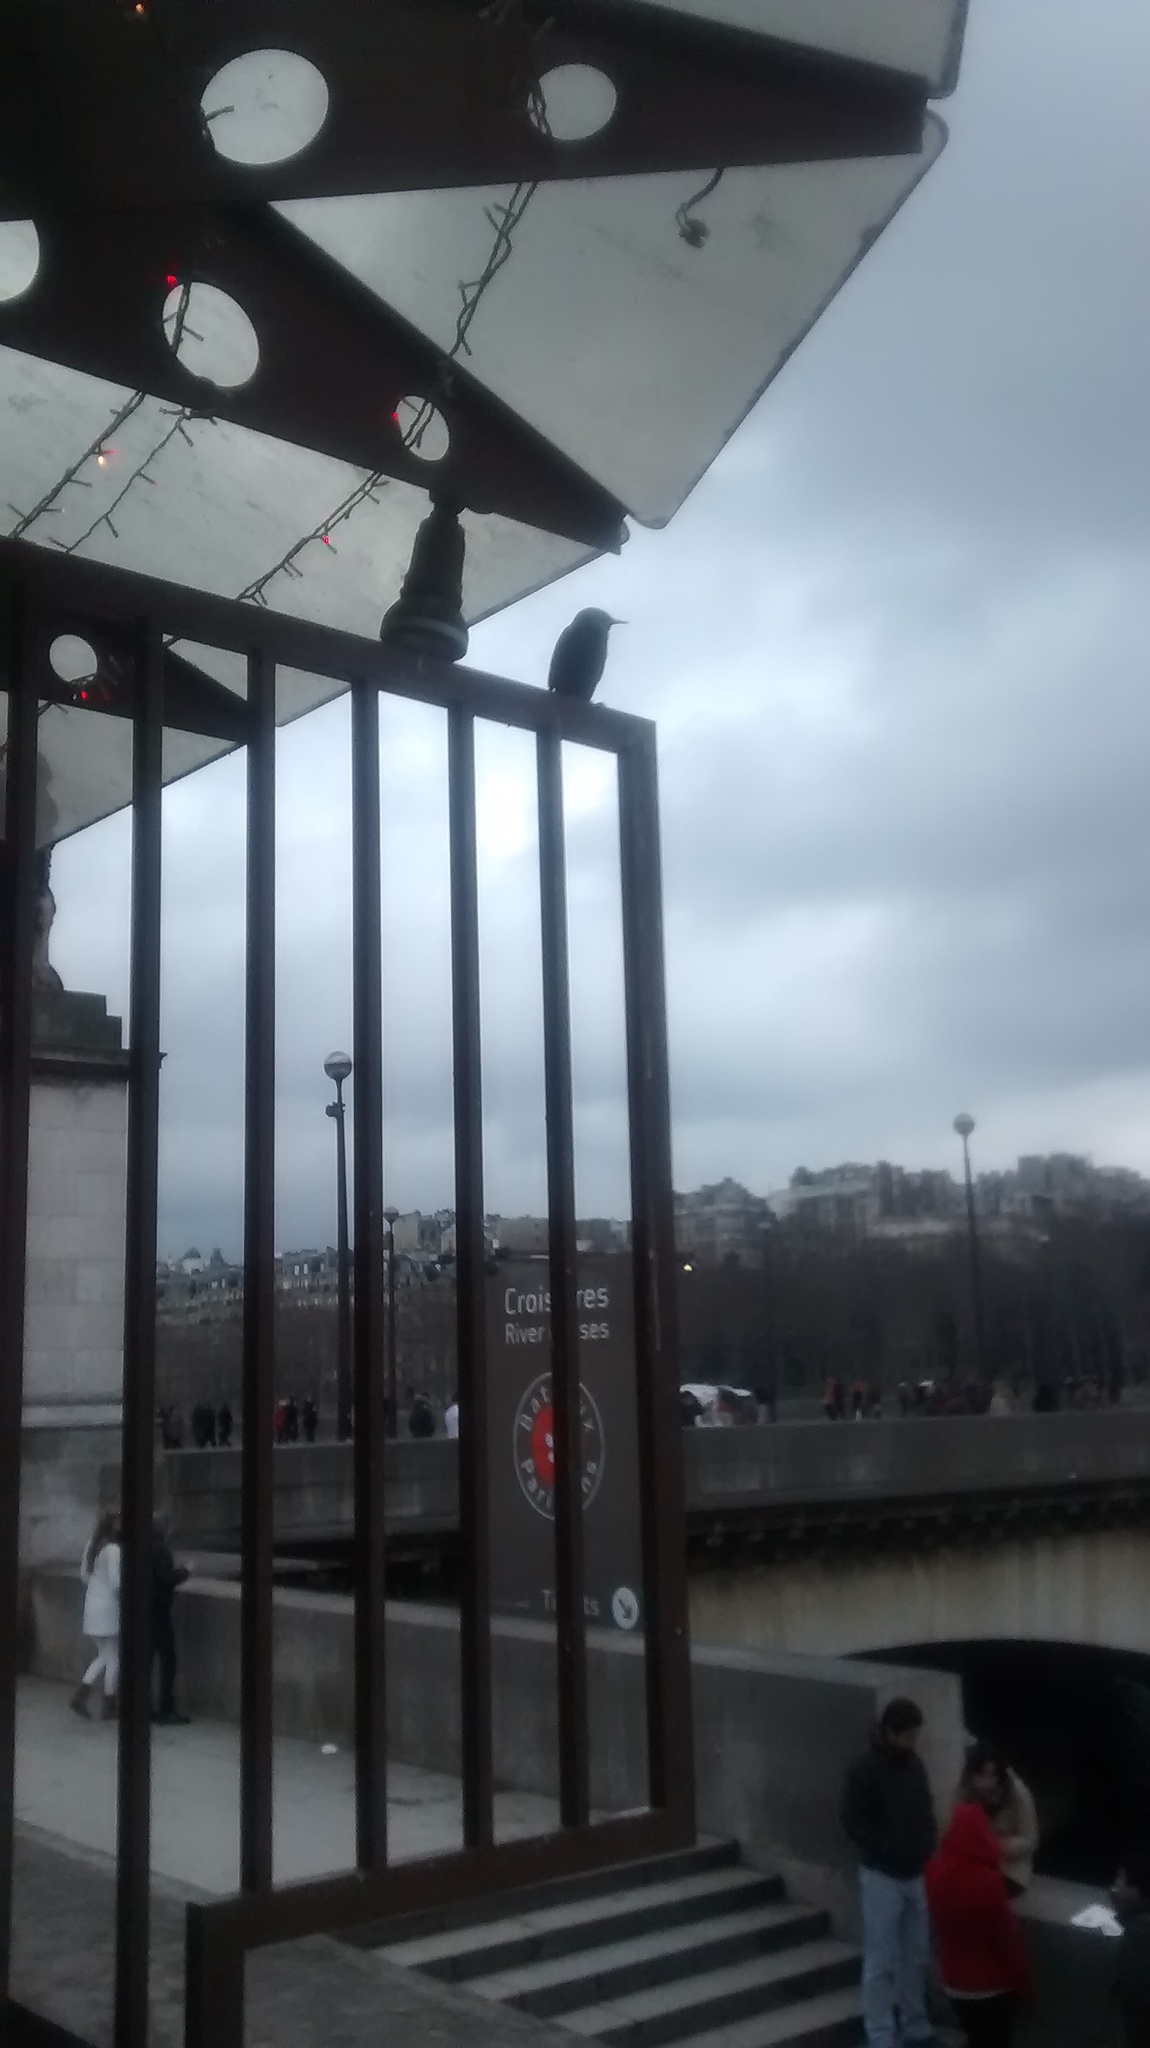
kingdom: Animalia
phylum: Chordata
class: Aves
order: Passeriformes
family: Sturnidae
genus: Sturnus
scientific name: Sturnus vulgaris
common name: Common starling
